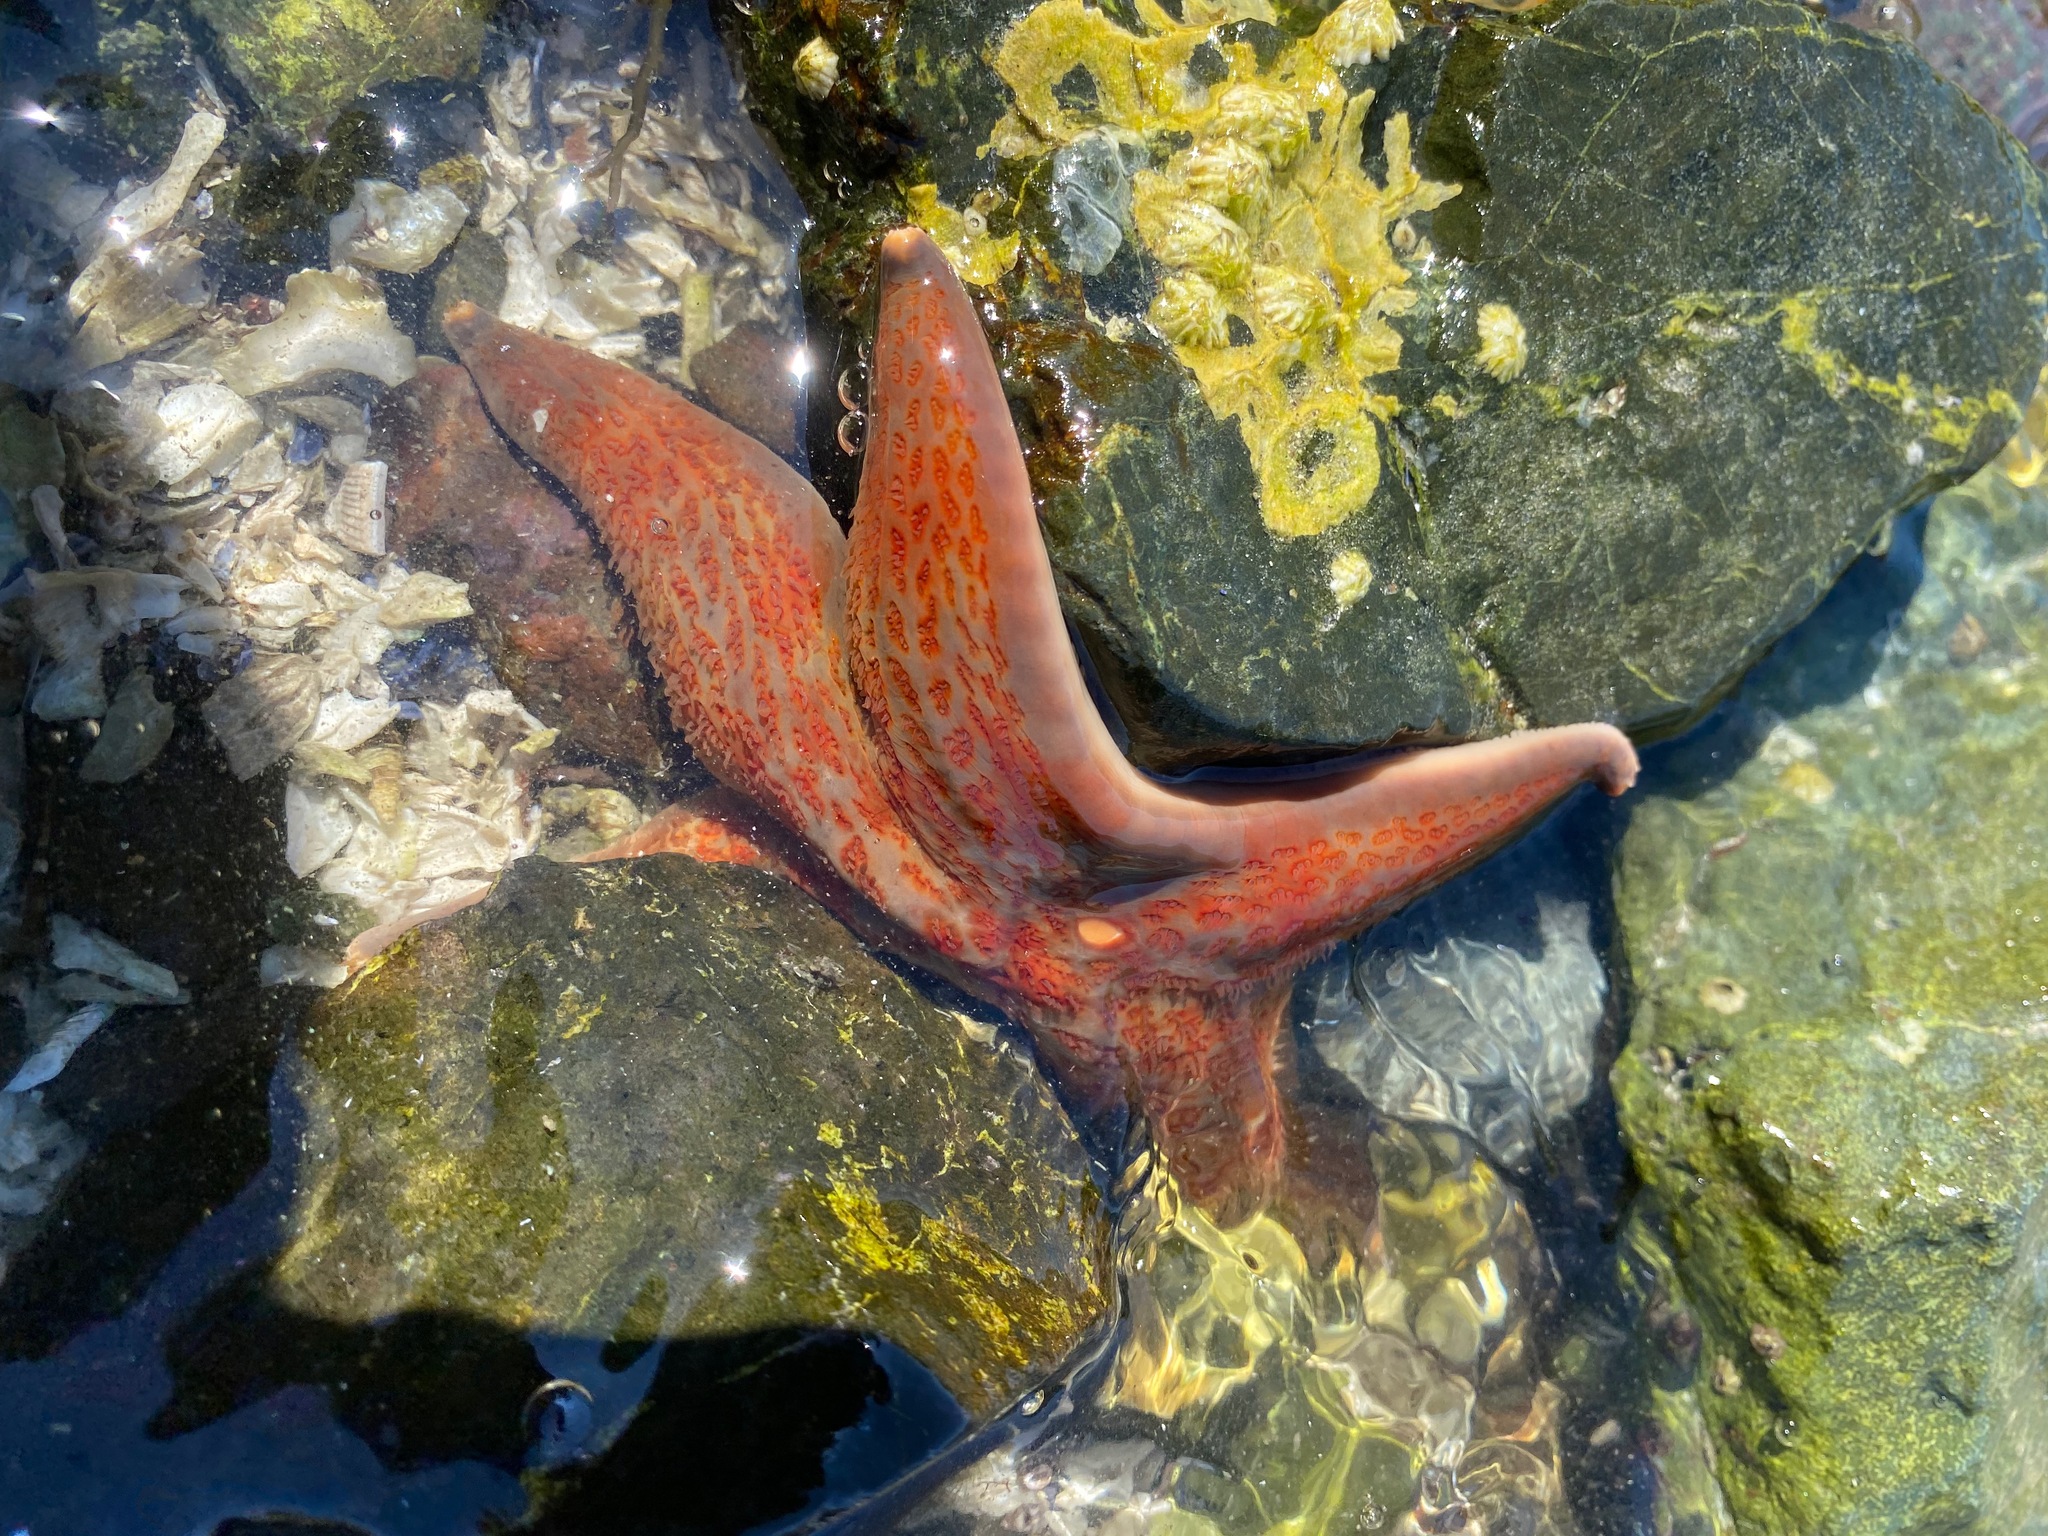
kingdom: Animalia
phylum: Echinodermata
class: Asteroidea
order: Valvatida
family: Asteropseidae
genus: Dermasterias
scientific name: Dermasterias imbricata
